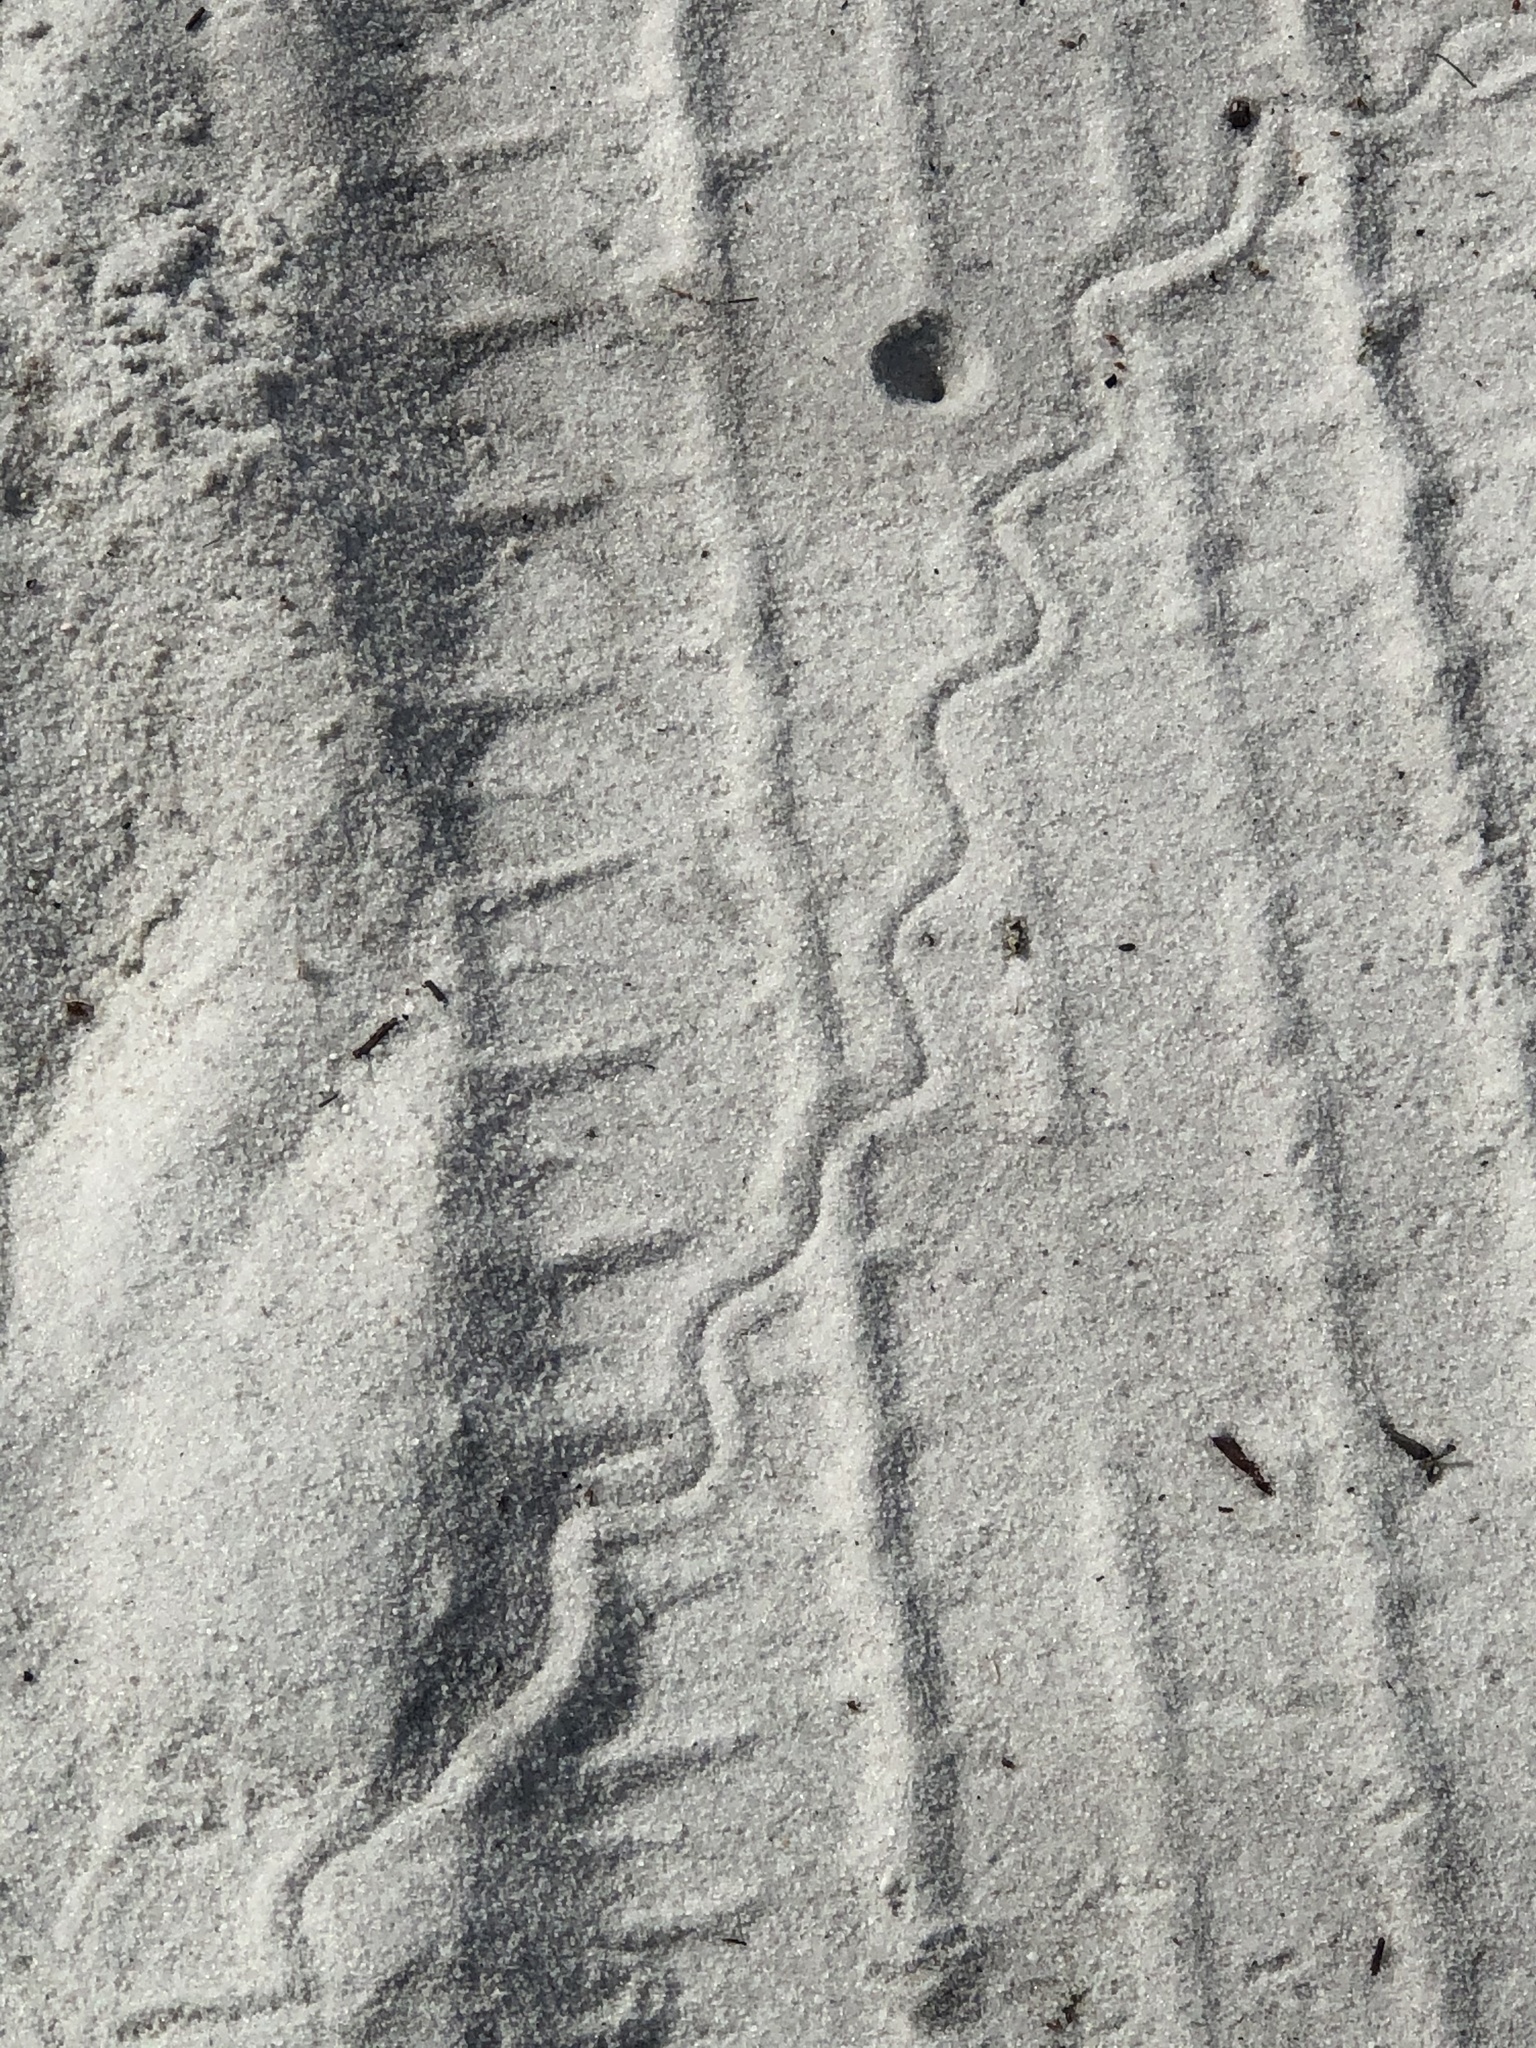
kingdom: Animalia
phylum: Chordata
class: Squamata
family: Scincidae
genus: Plestiodon
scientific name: Plestiodon reynoldsi
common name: Florida sand skink
